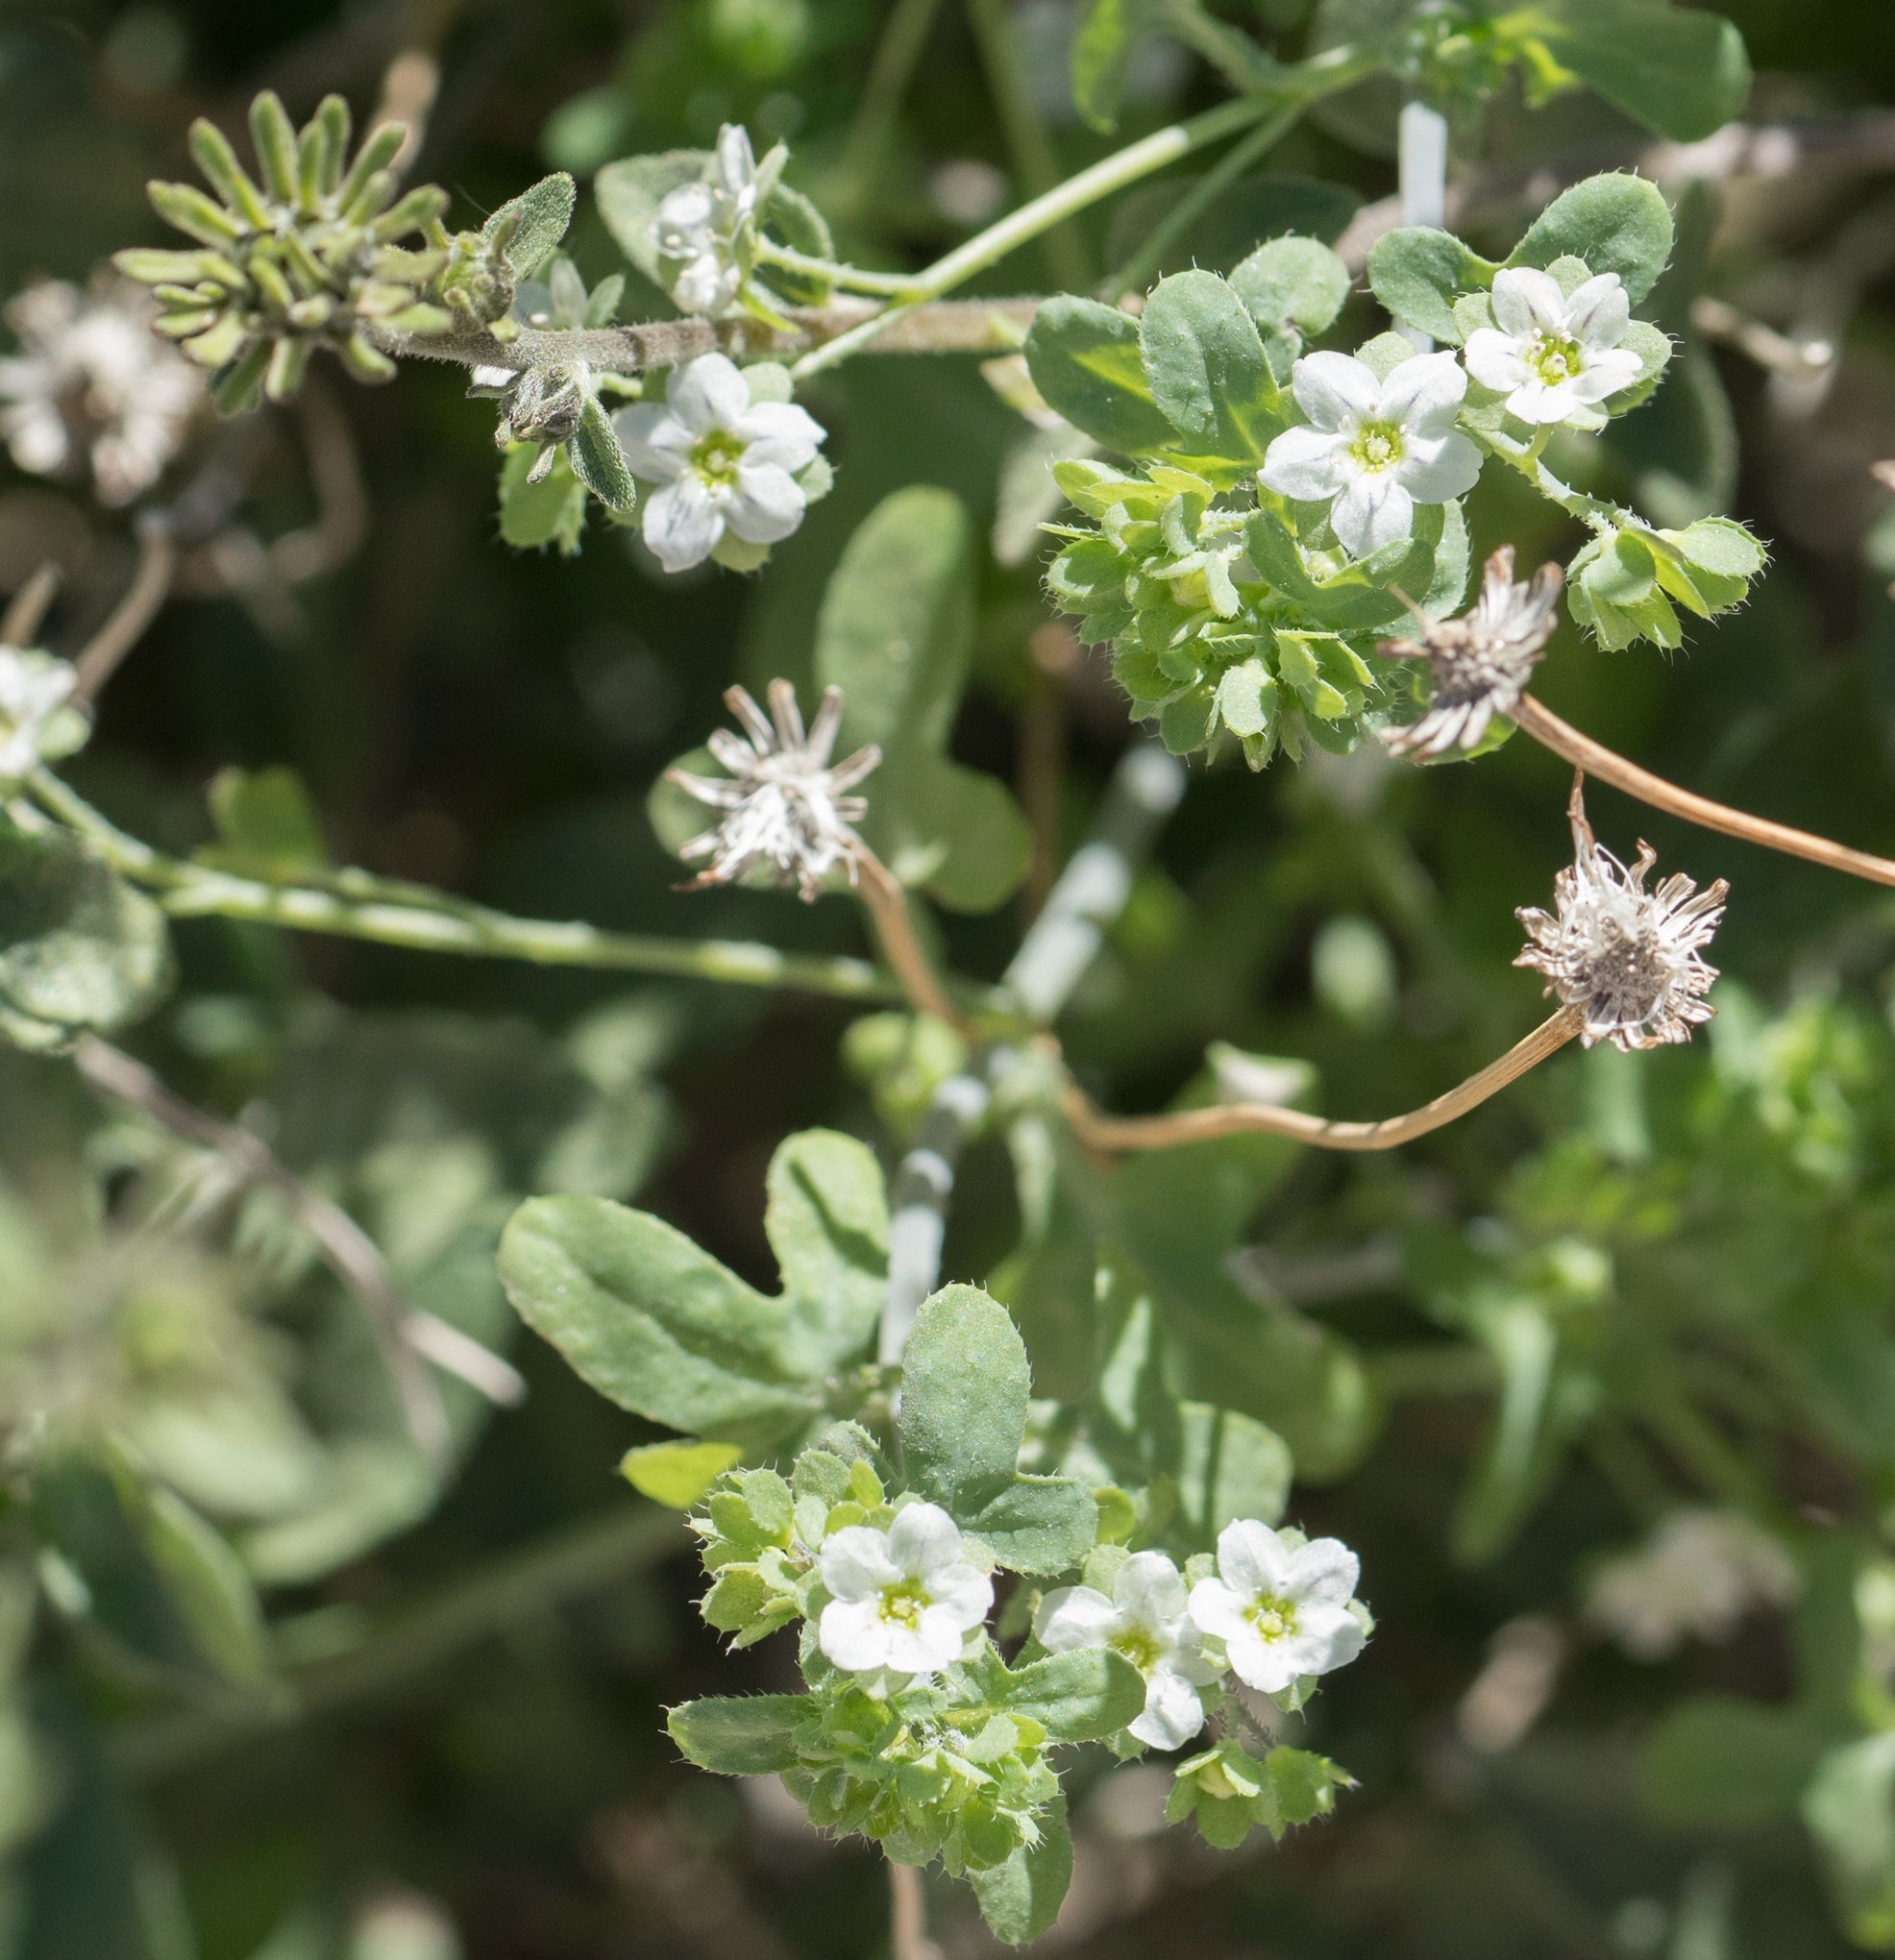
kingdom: Plantae
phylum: Tracheophyta
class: Magnoliopsida
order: Boraginales
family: Hydrophyllaceae
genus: Pholistoma
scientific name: Pholistoma membranaceum
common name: White fiesta-flower
